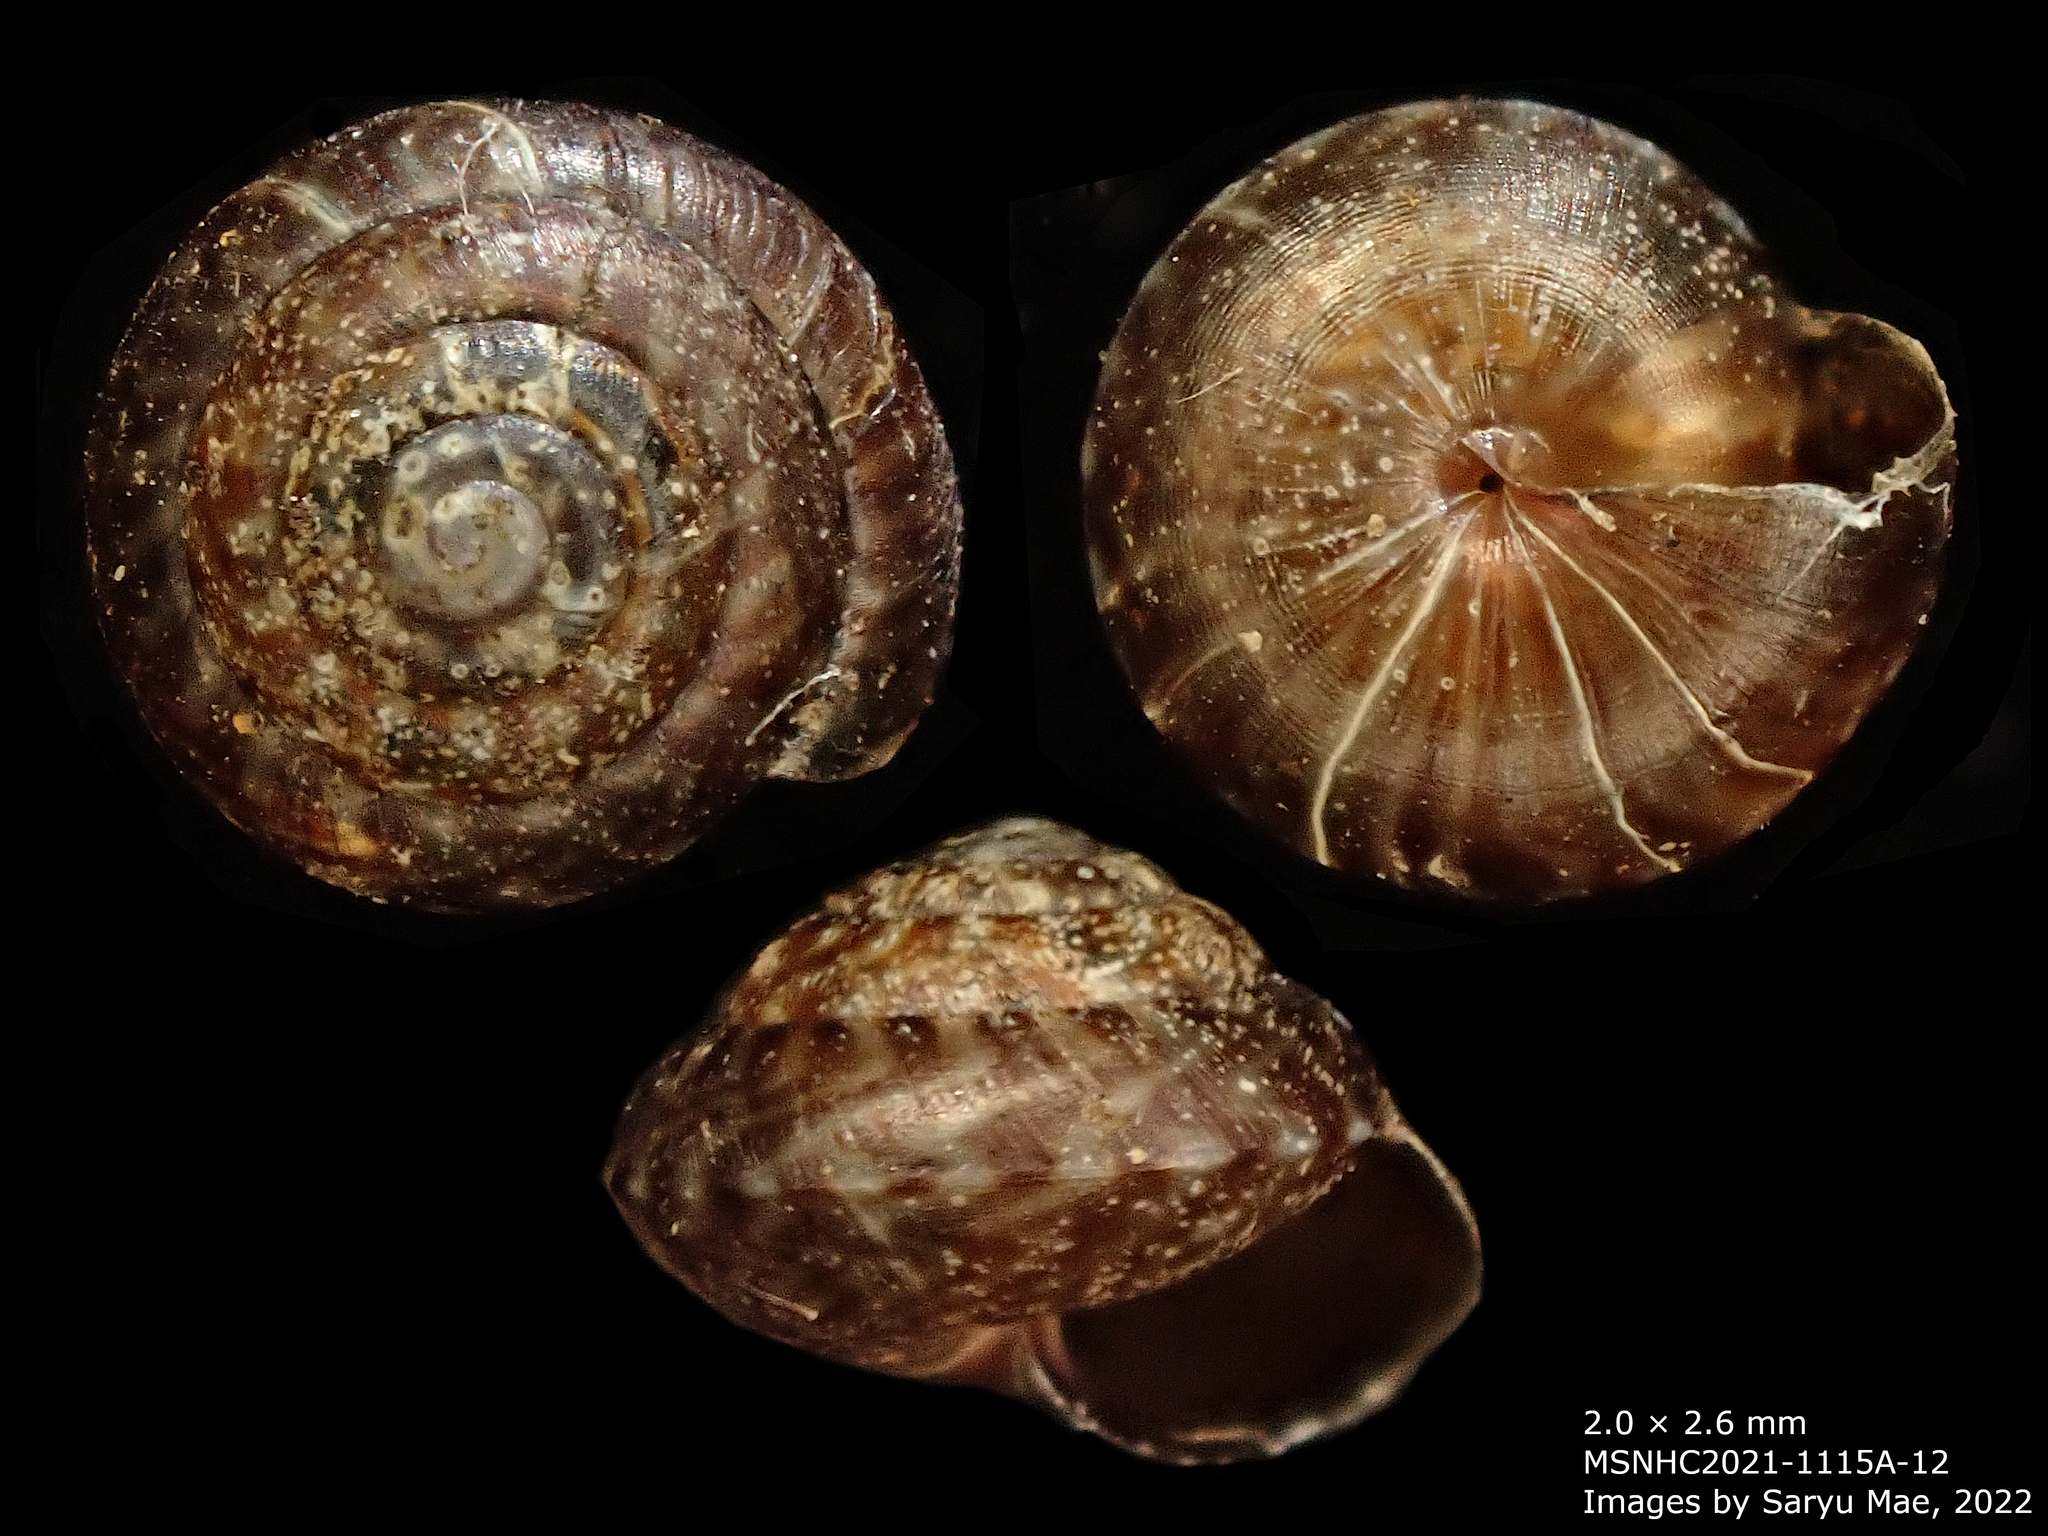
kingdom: Animalia
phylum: Mollusca
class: Gastropoda
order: Stylommatophora
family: Punctidae
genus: Laoma
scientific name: Laoma mariae
